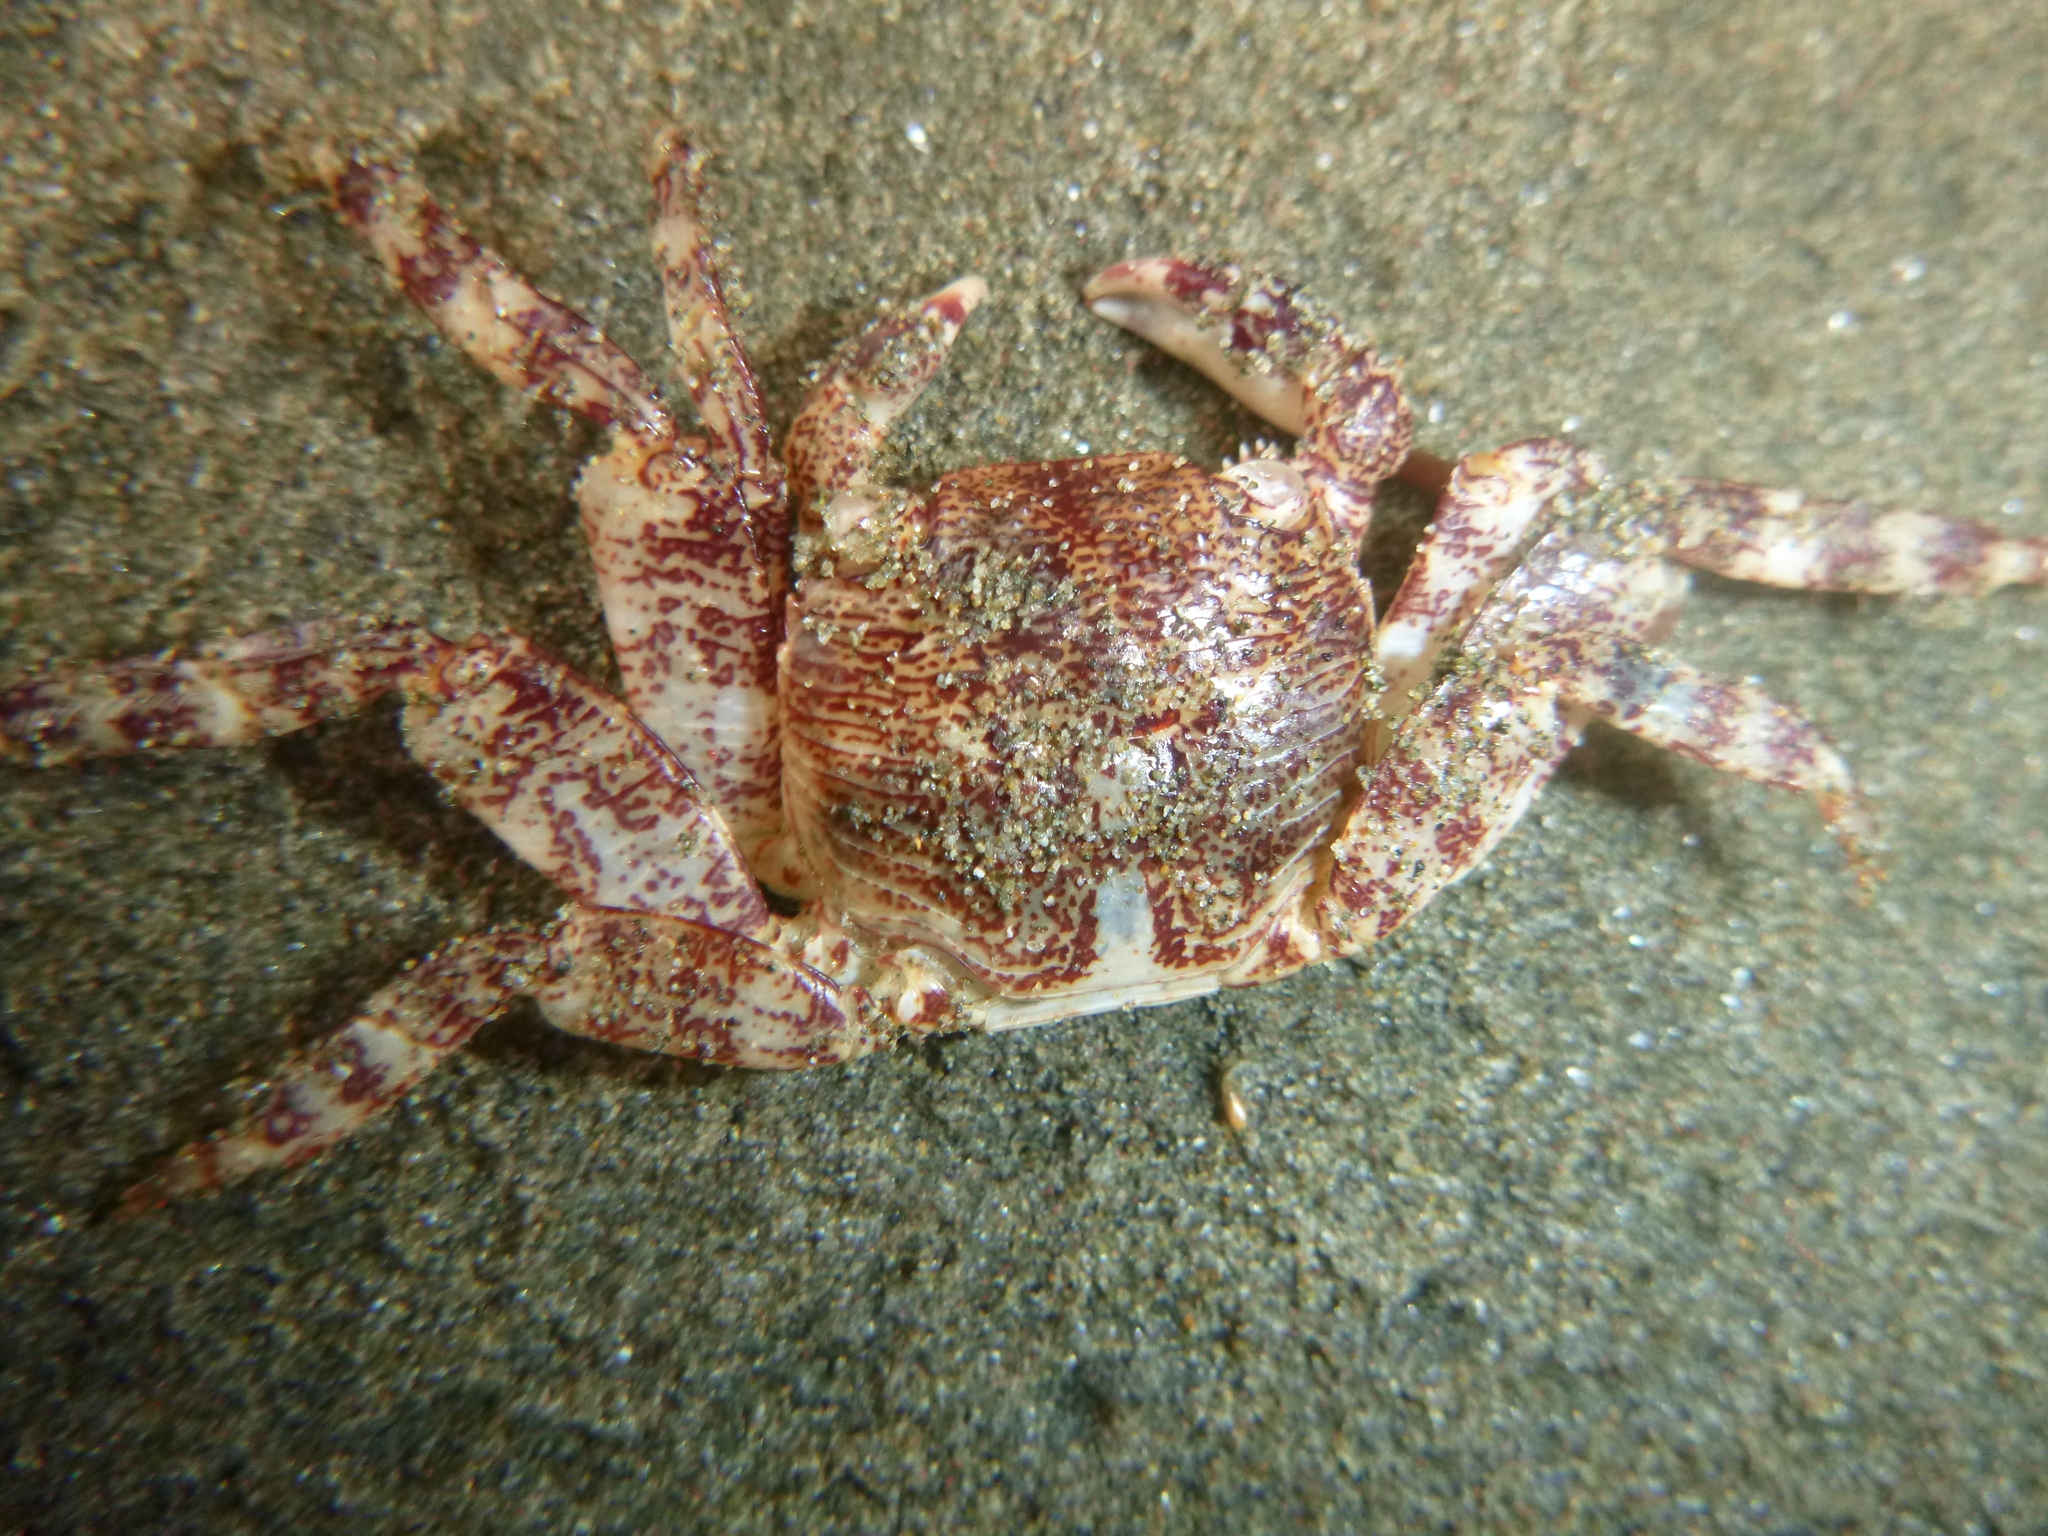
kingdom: Animalia
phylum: Arthropoda
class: Malacostraca
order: Decapoda
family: Grapsidae
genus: Leptograpsus
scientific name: Leptograpsus variegatus
